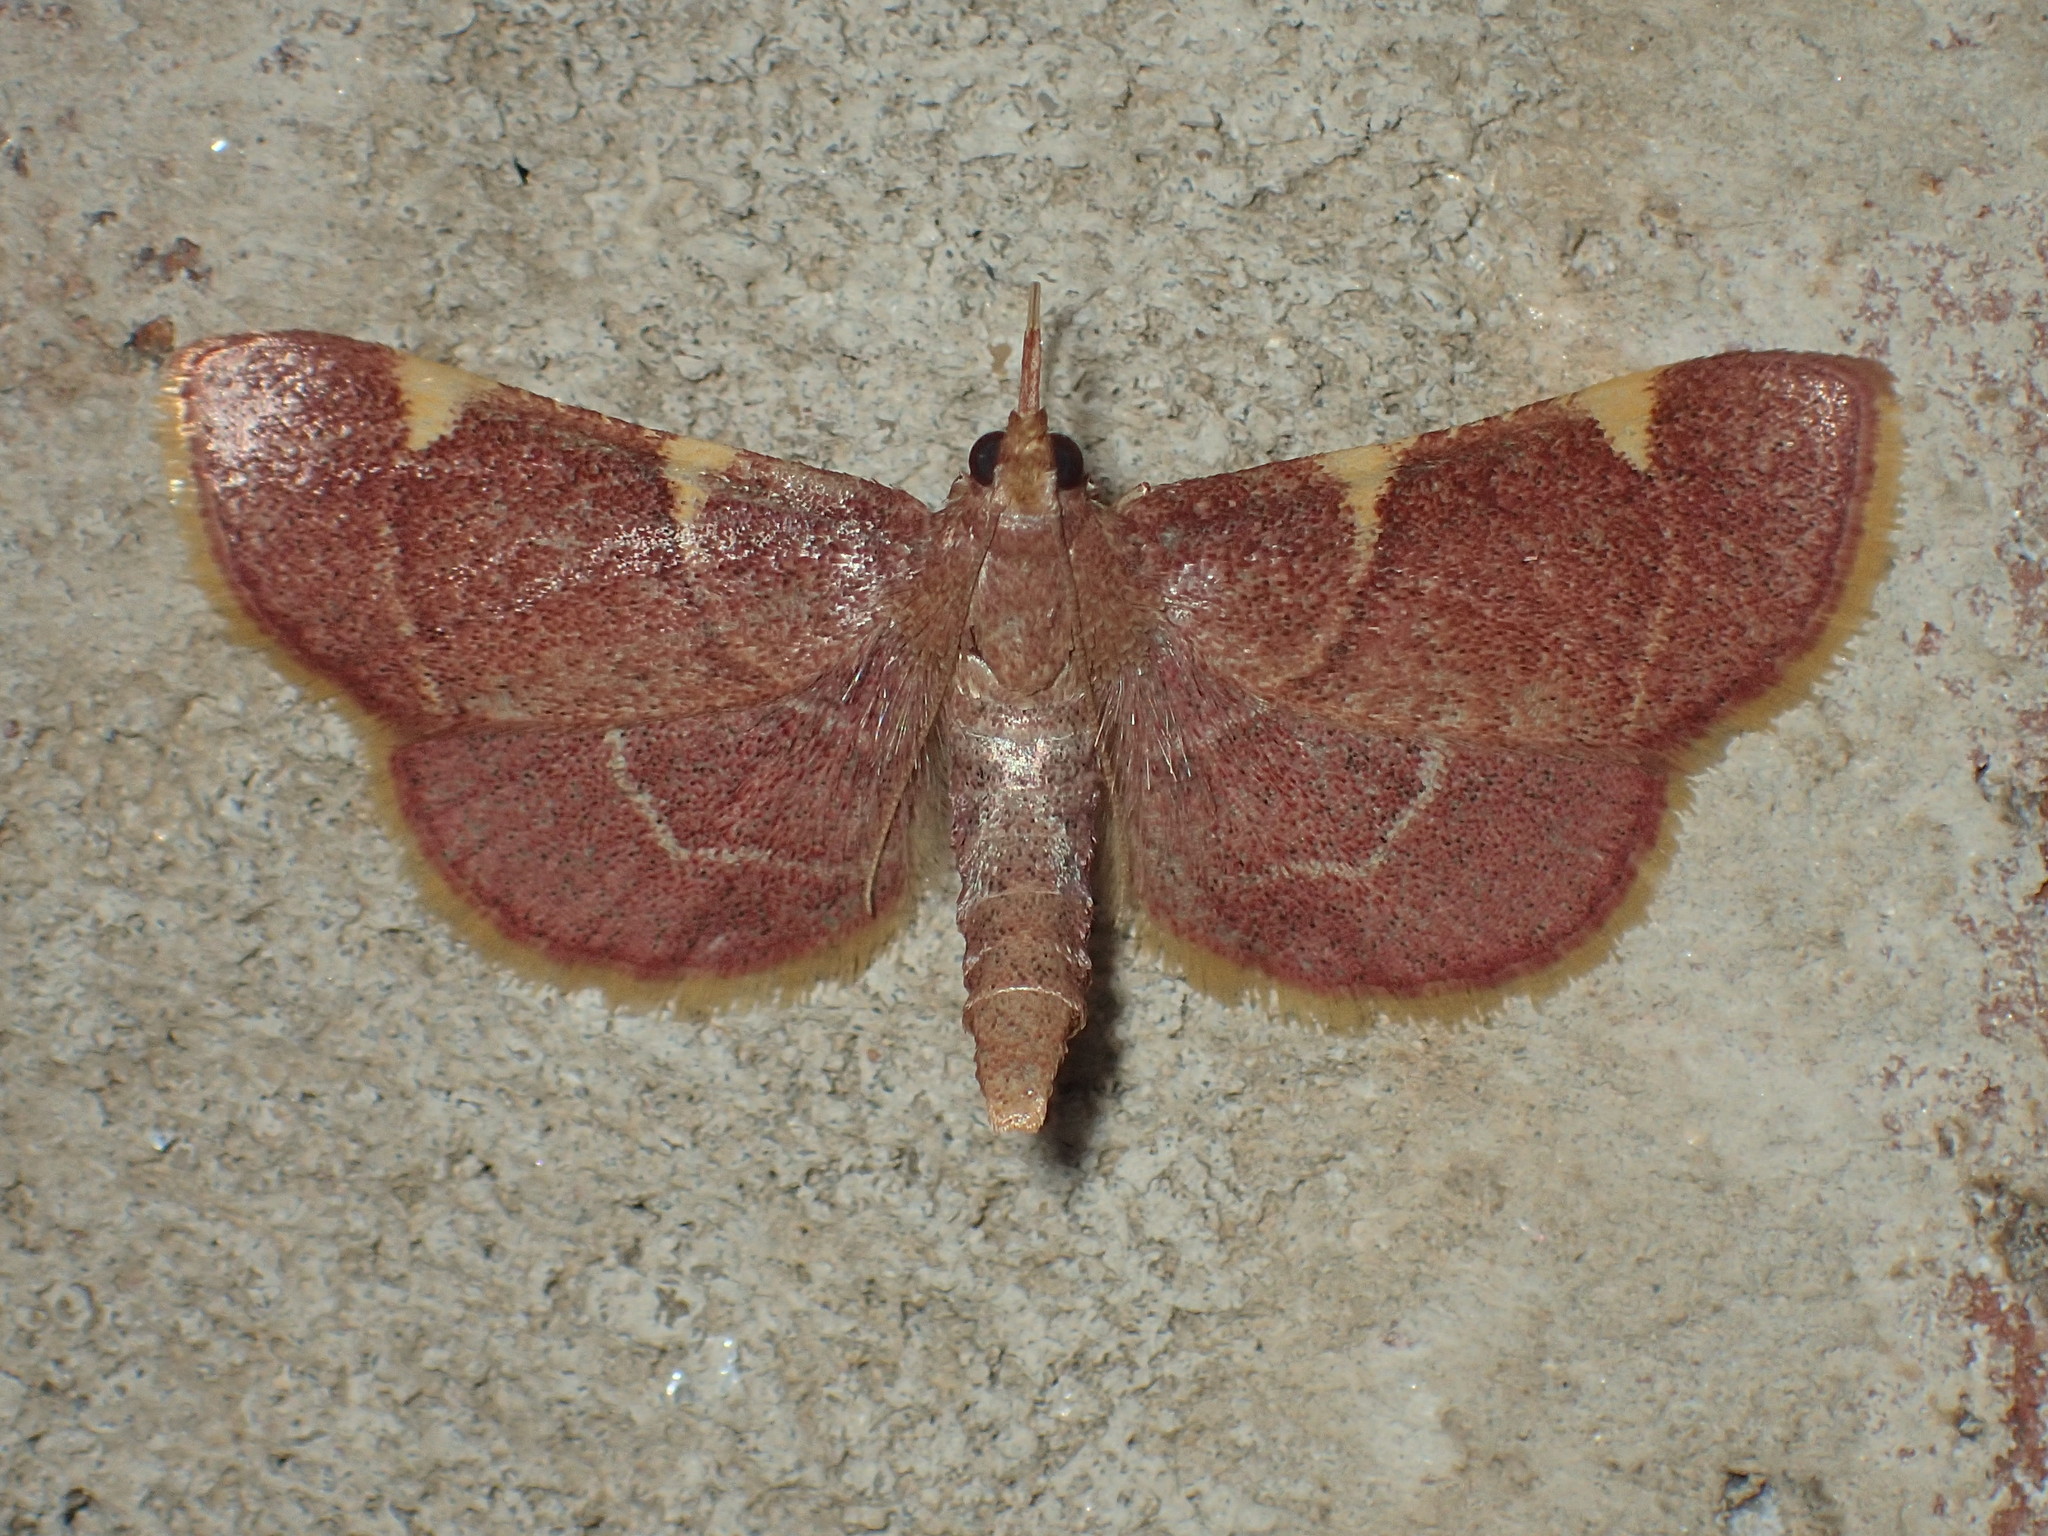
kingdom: Animalia
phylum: Arthropoda
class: Insecta
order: Lepidoptera
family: Pyralidae
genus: Hypsopygia
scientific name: Hypsopygia olinalis
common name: Yellow-fringed dolichomia moth
